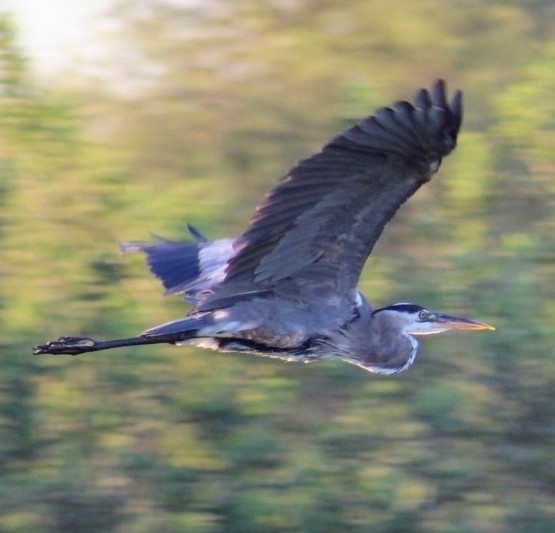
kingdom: Animalia
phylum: Chordata
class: Aves
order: Pelecaniformes
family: Ardeidae
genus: Ardea
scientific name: Ardea herodias
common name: Great blue heron
